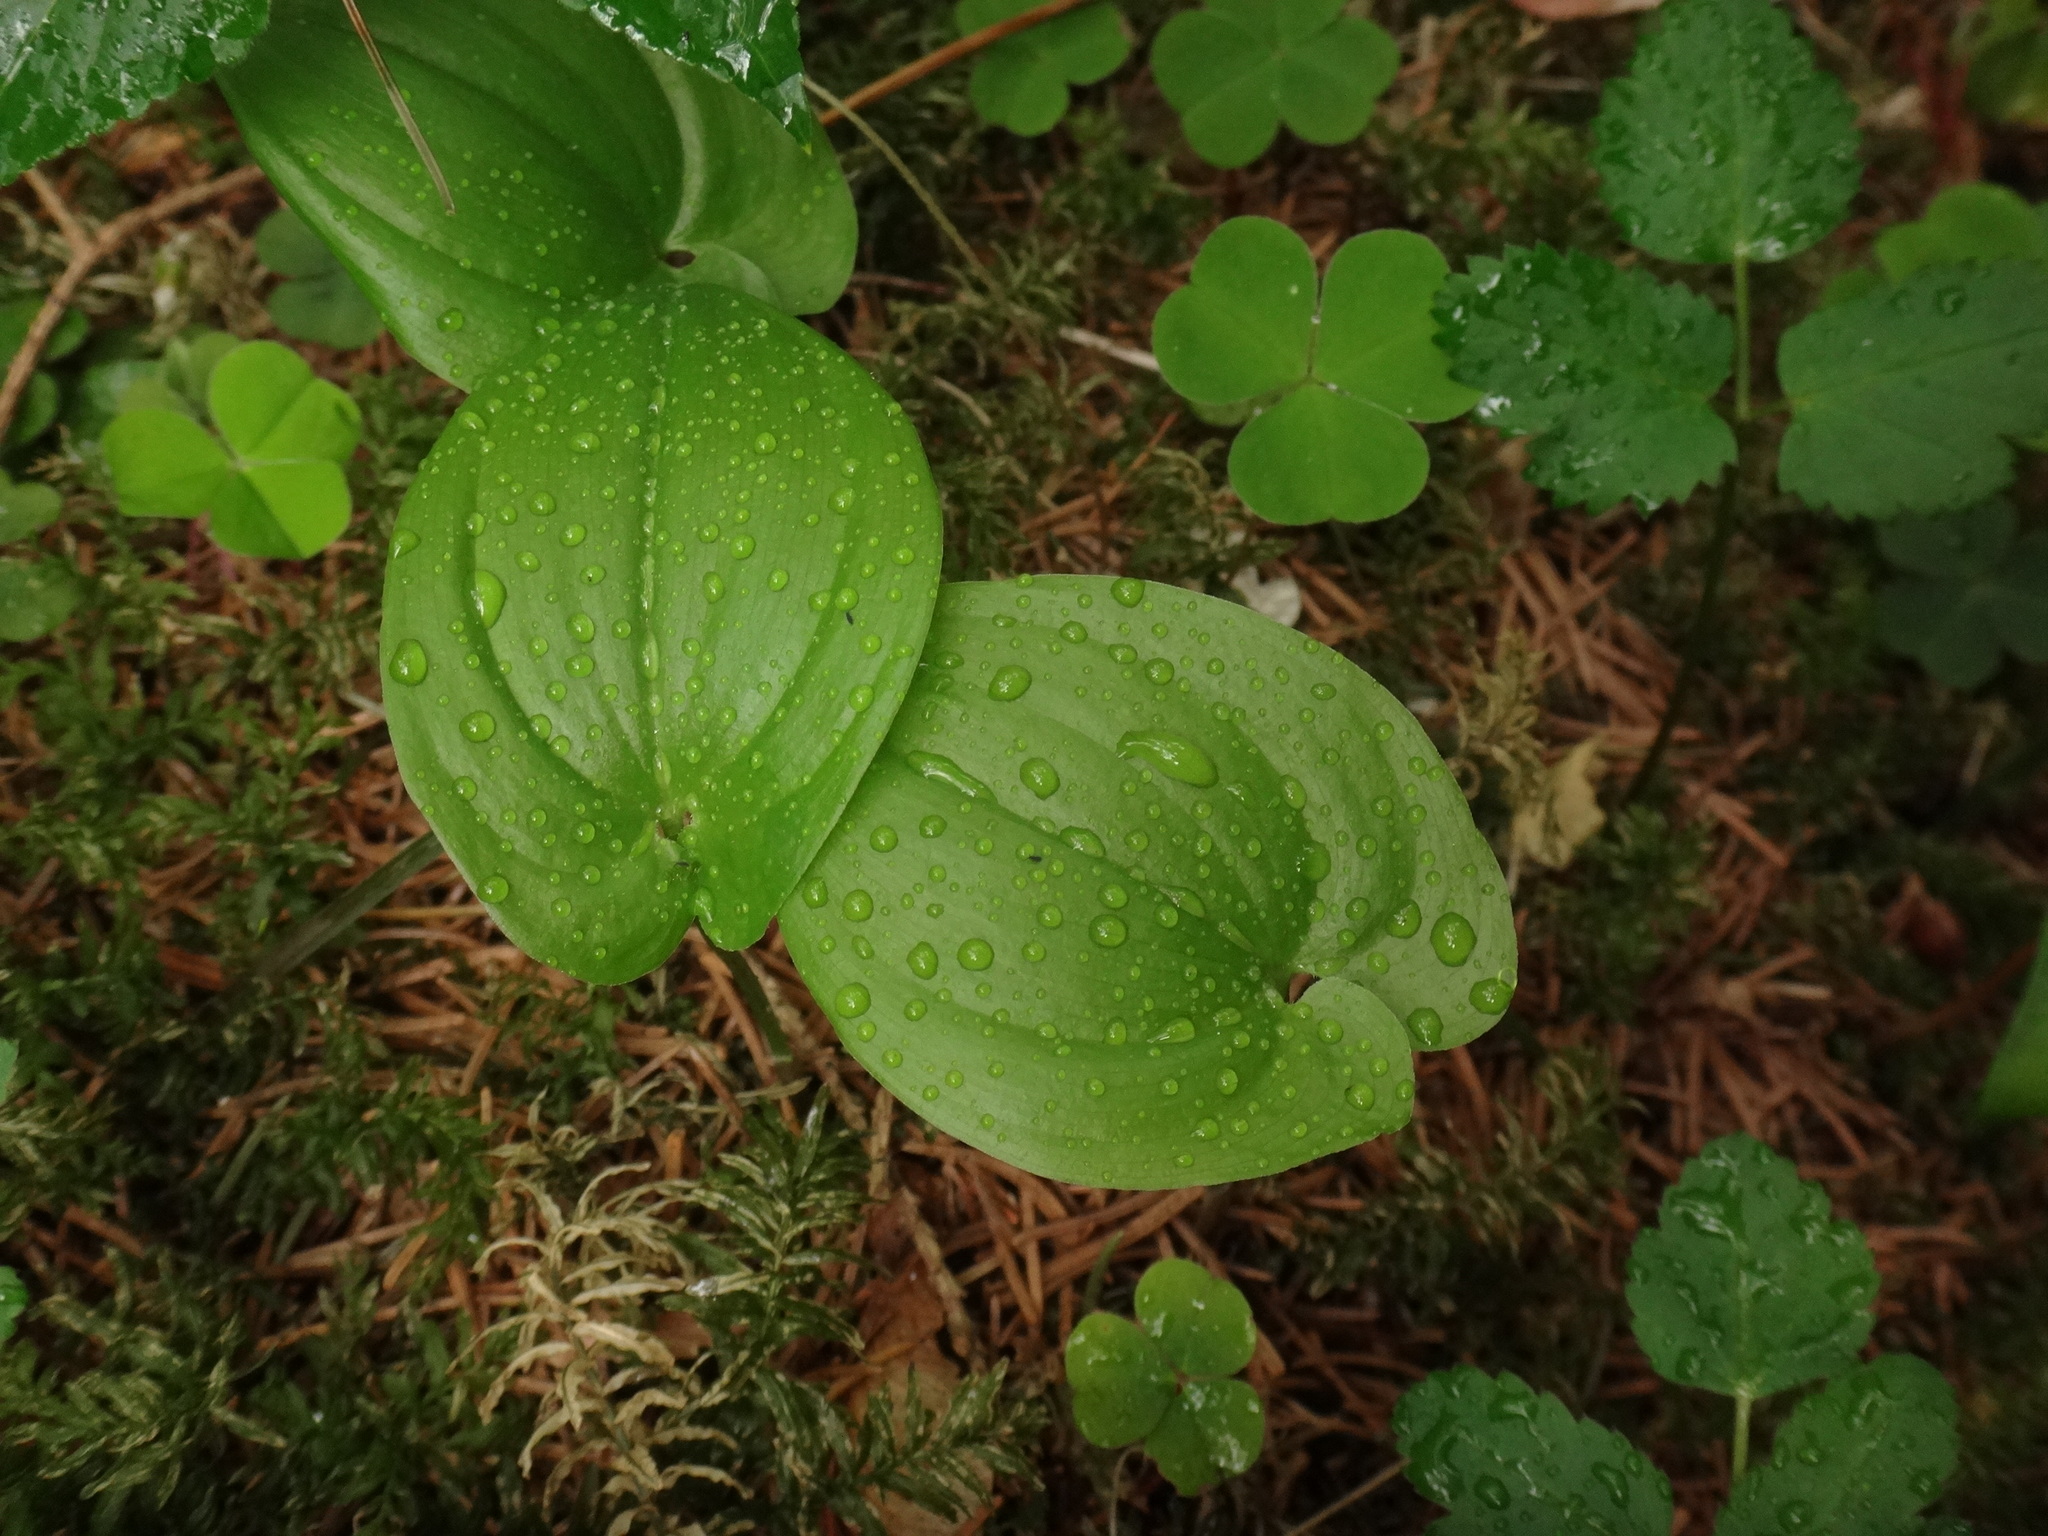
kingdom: Plantae
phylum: Tracheophyta
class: Liliopsida
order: Asparagales
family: Asparagaceae
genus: Maianthemum
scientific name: Maianthemum bifolium
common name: May lily
